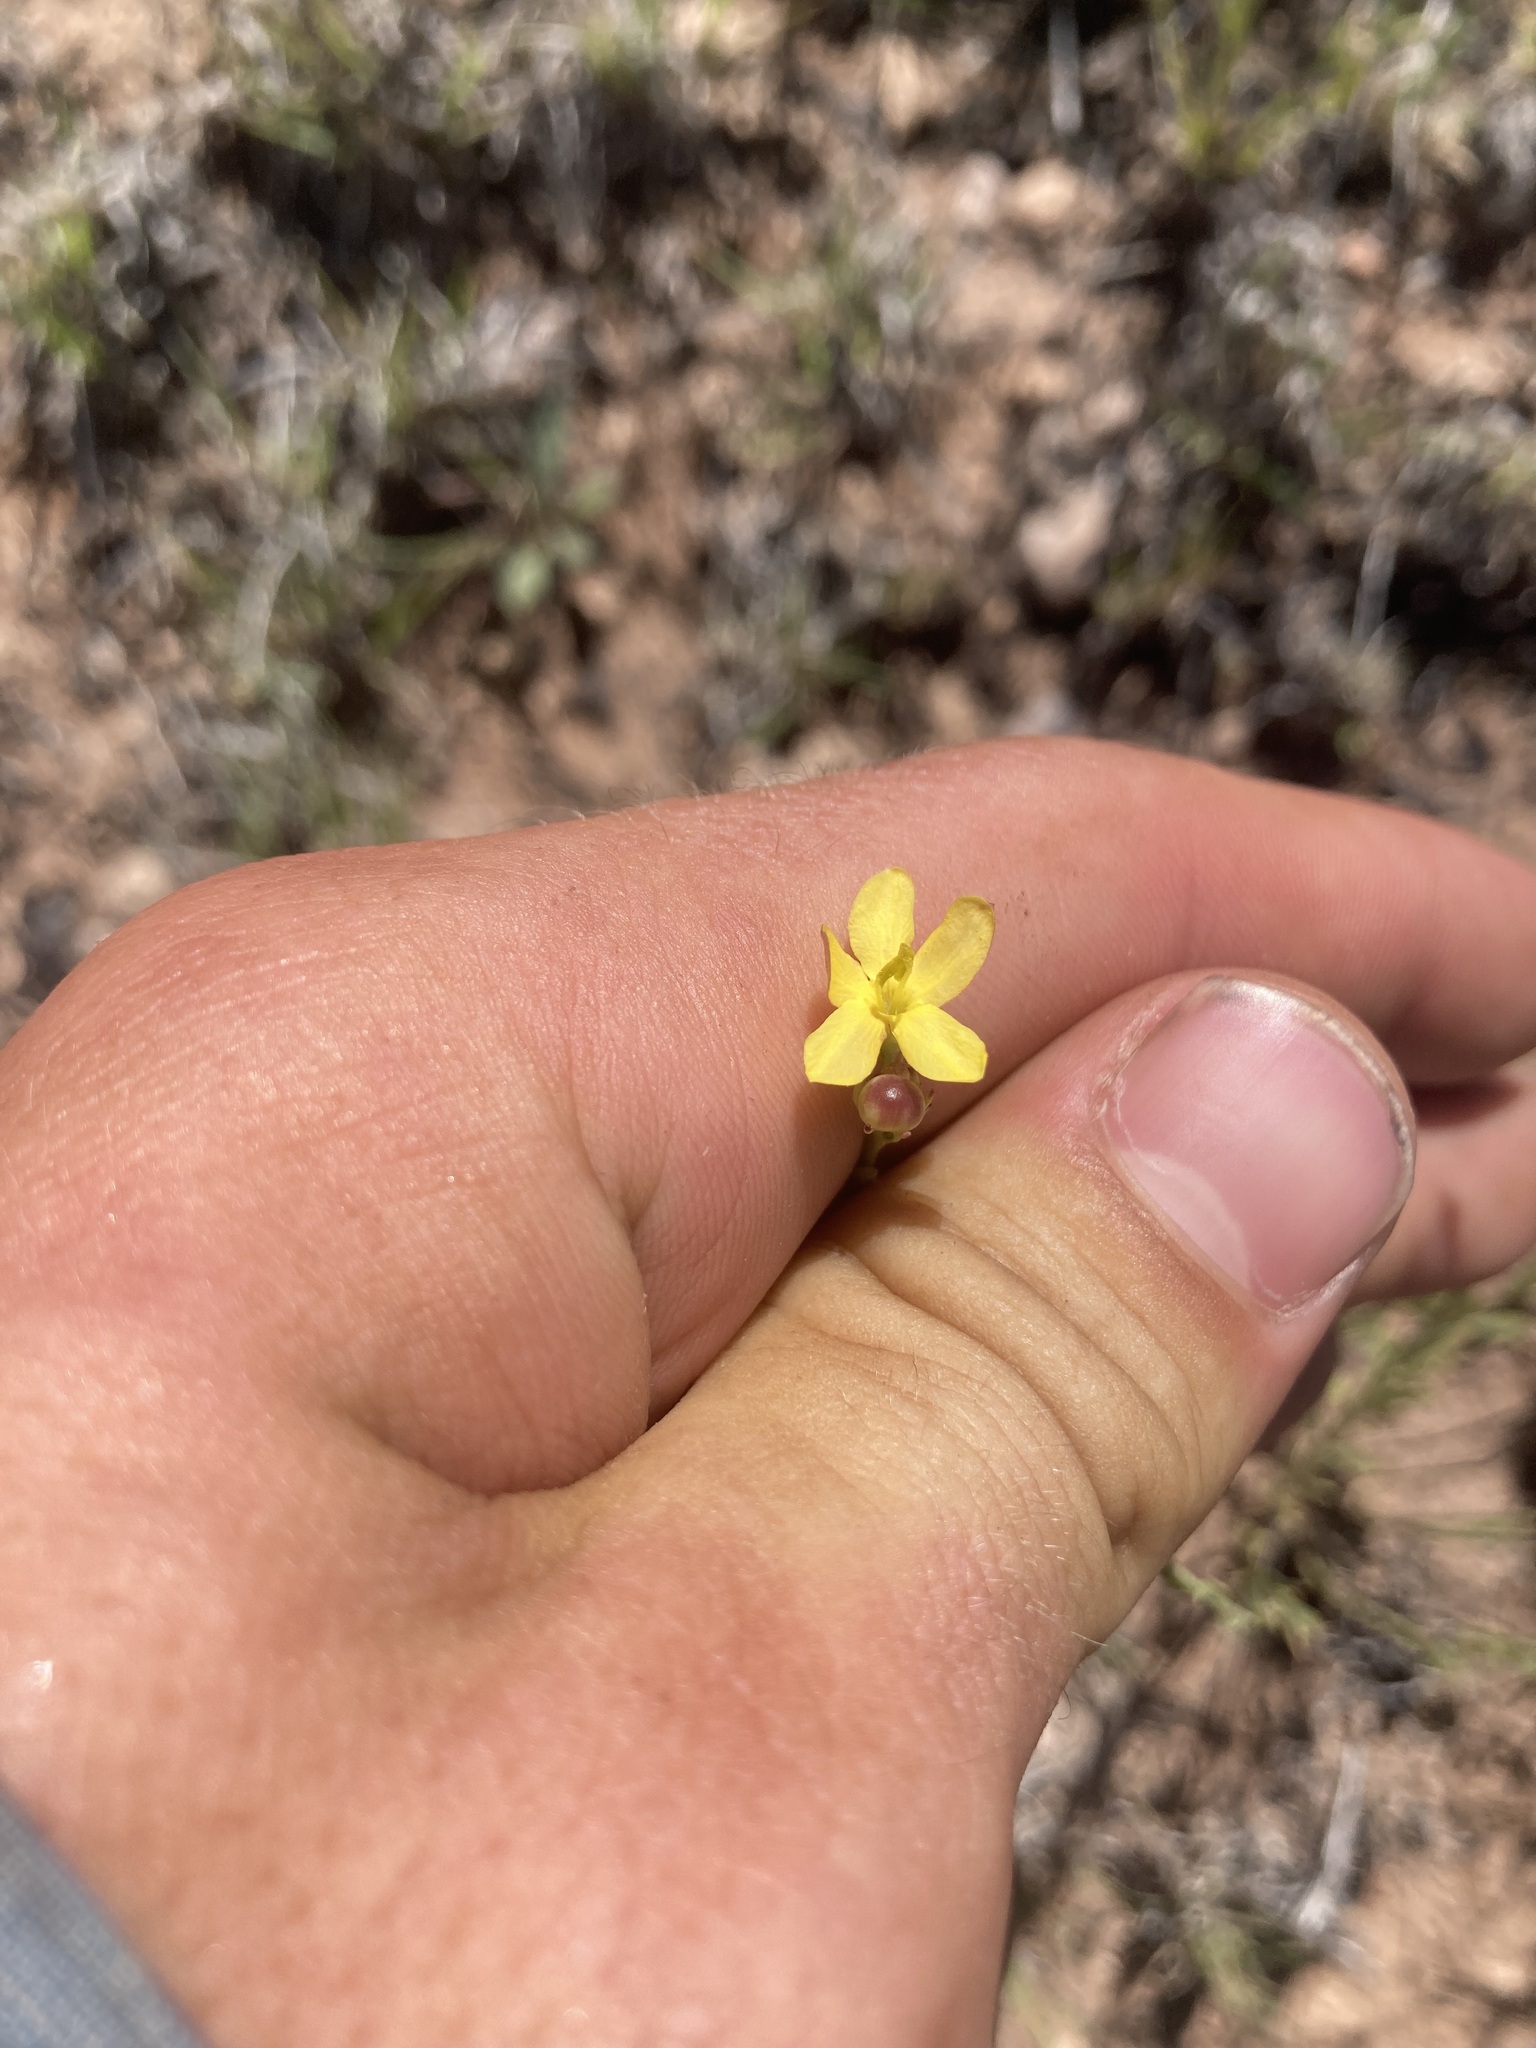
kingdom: Plantae
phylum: Tracheophyta
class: Magnoliopsida
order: Lamiales
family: Oleaceae
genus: Menodora
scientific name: Menodora scabra
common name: Rough menodora
